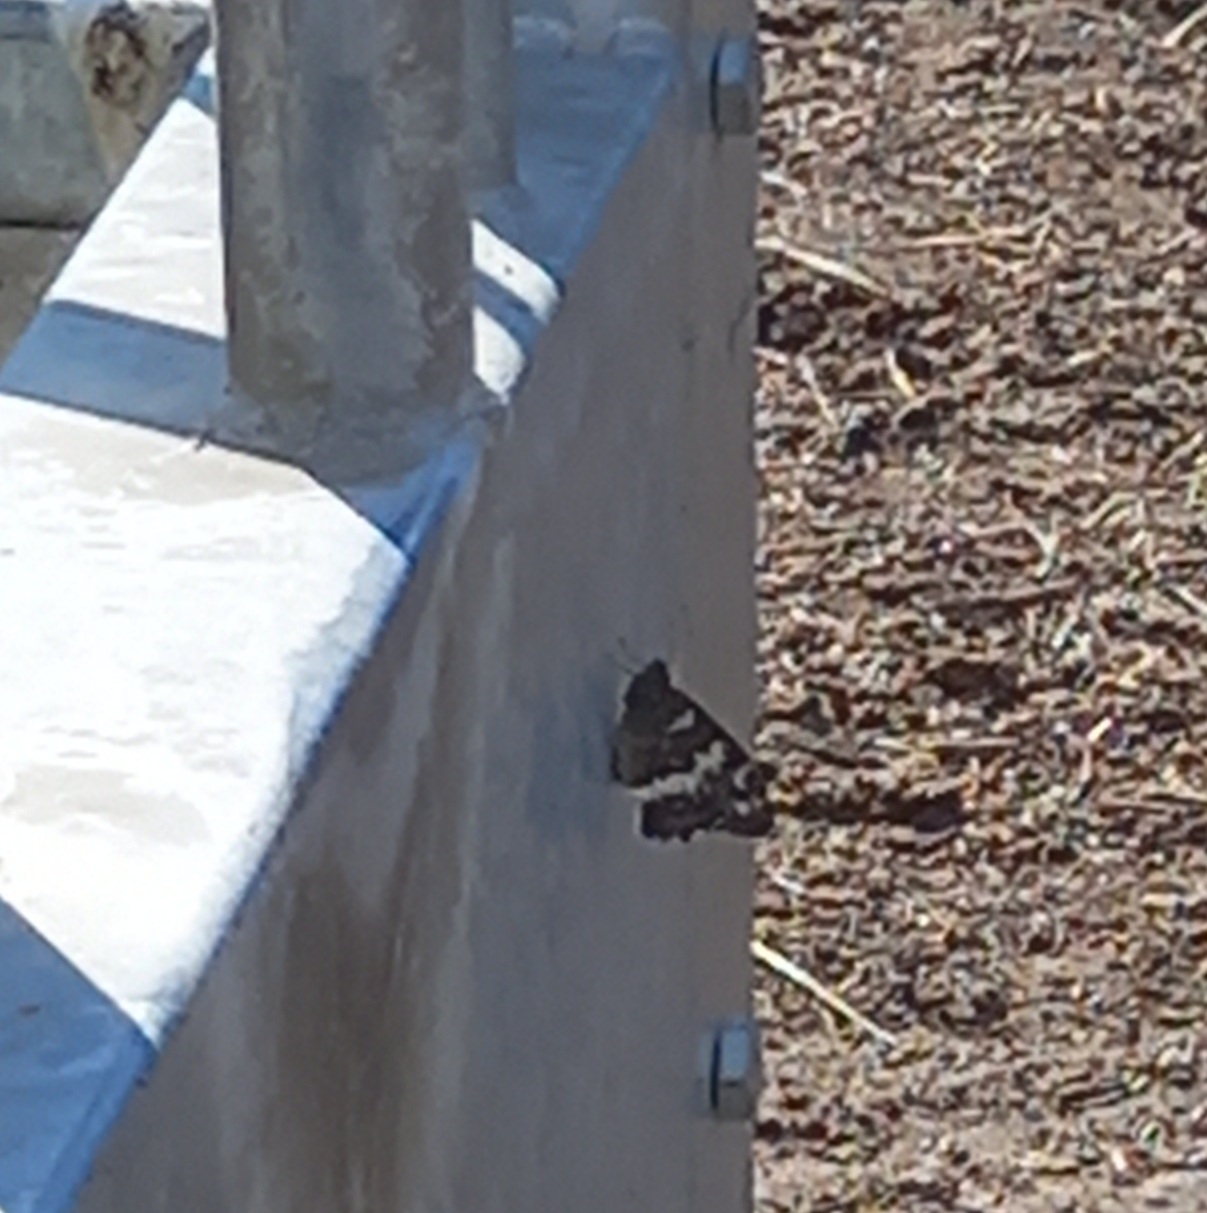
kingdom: Animalia
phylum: Arthropoda
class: Insecta
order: Lepidoptera
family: Lycaenidae
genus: Loweia
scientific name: Loweia tityrus
